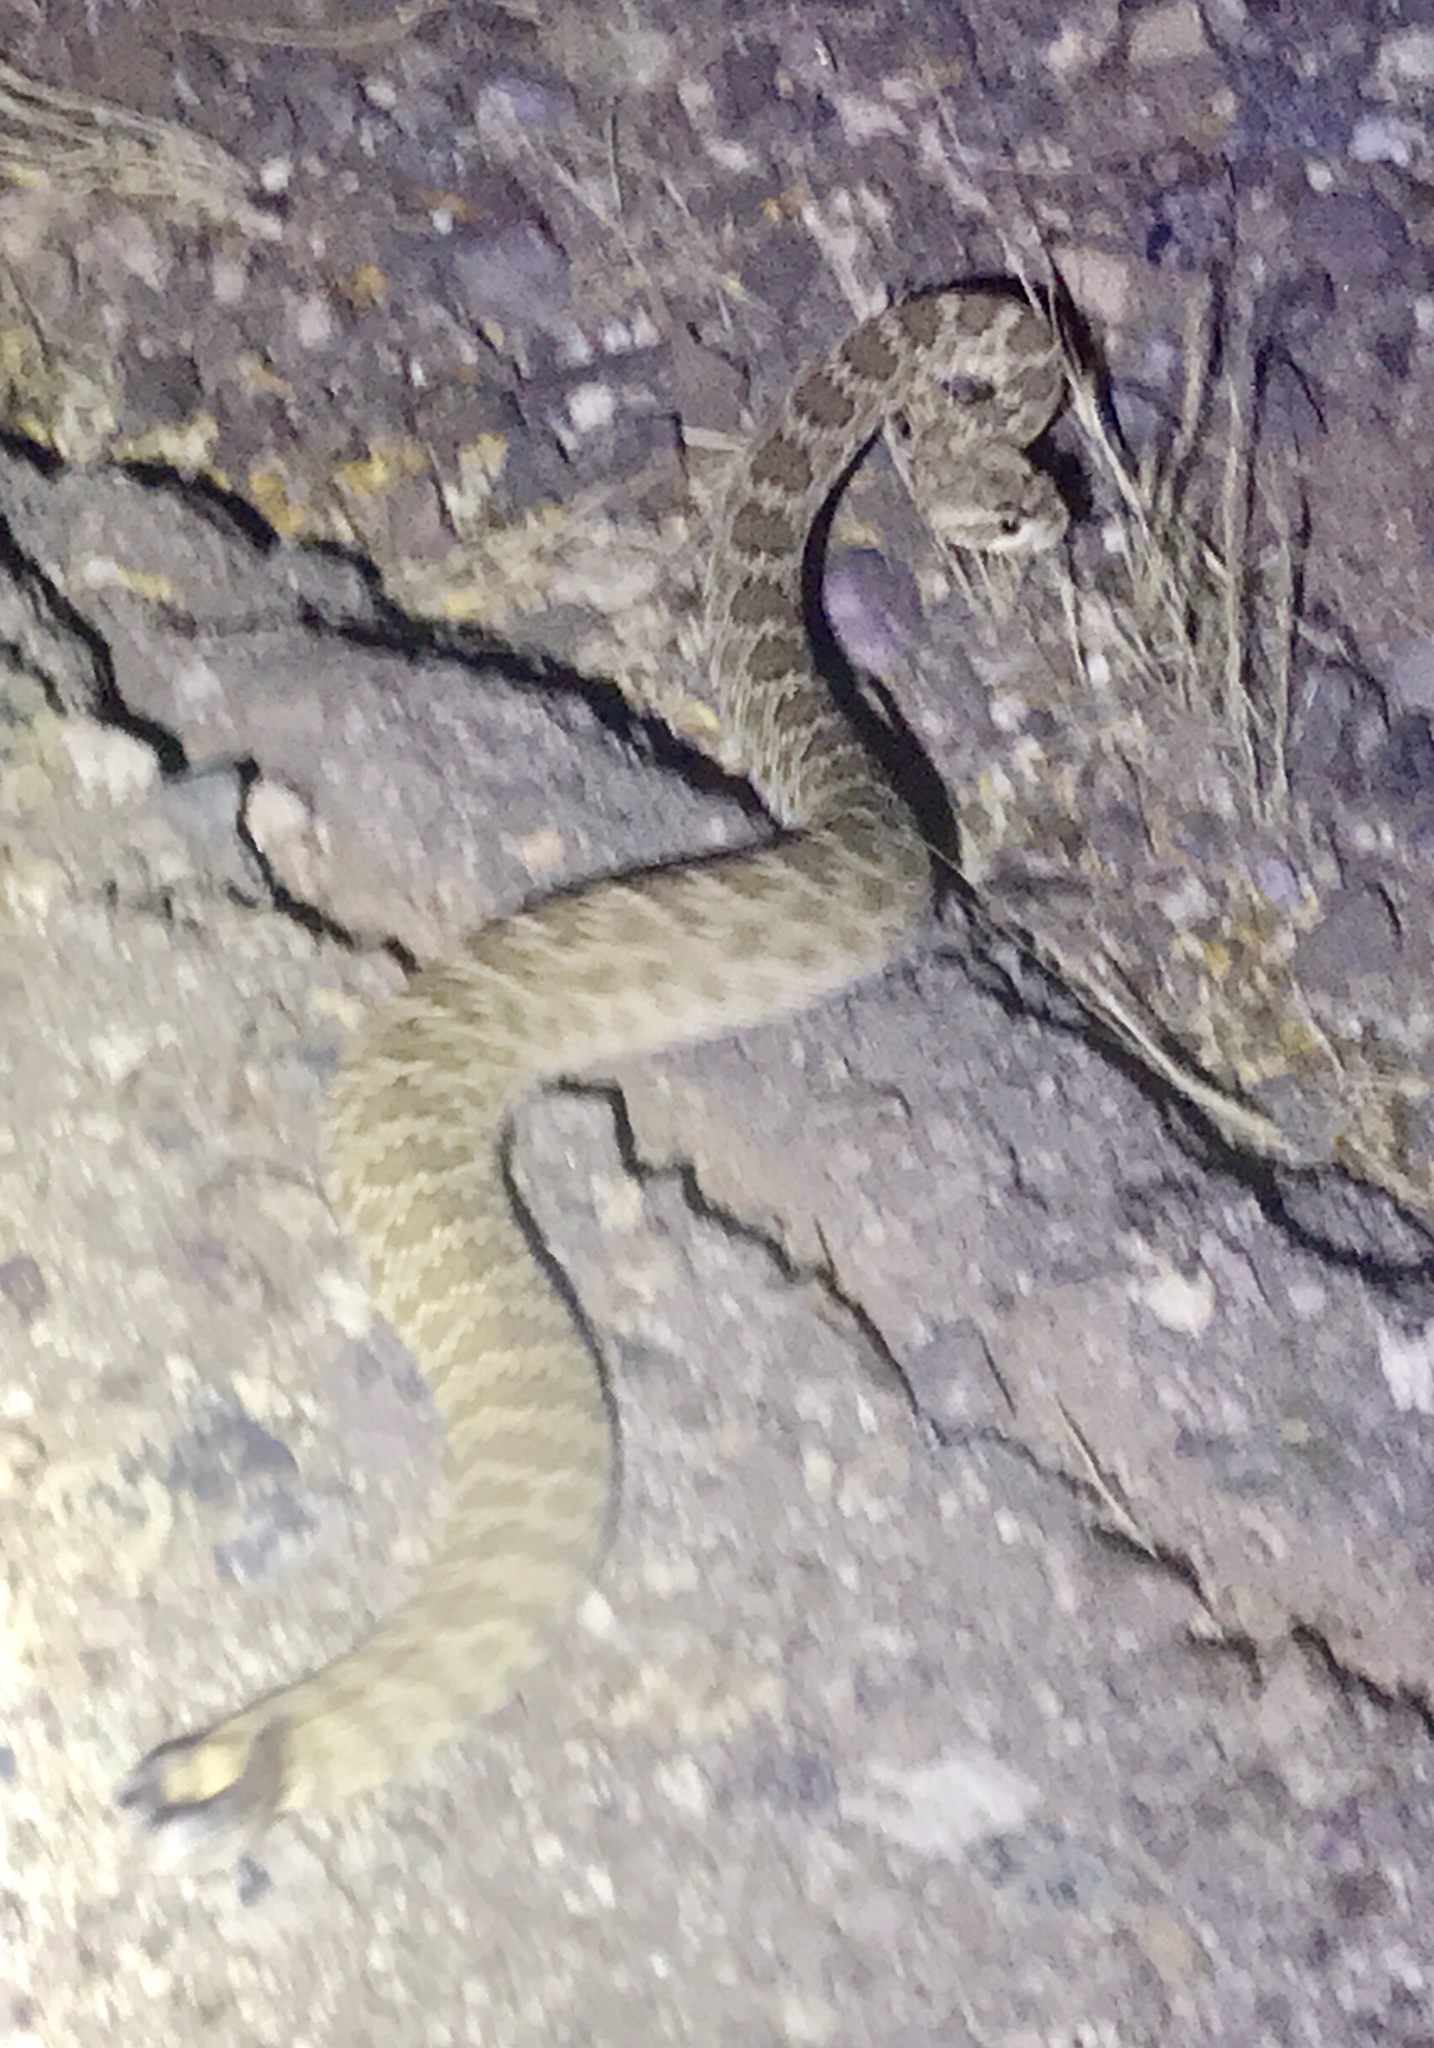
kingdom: Animalia
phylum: Chordata
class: Squamata
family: Viperidae
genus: Crotalus
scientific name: Crotalus scutulatus
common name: Scutulatus
